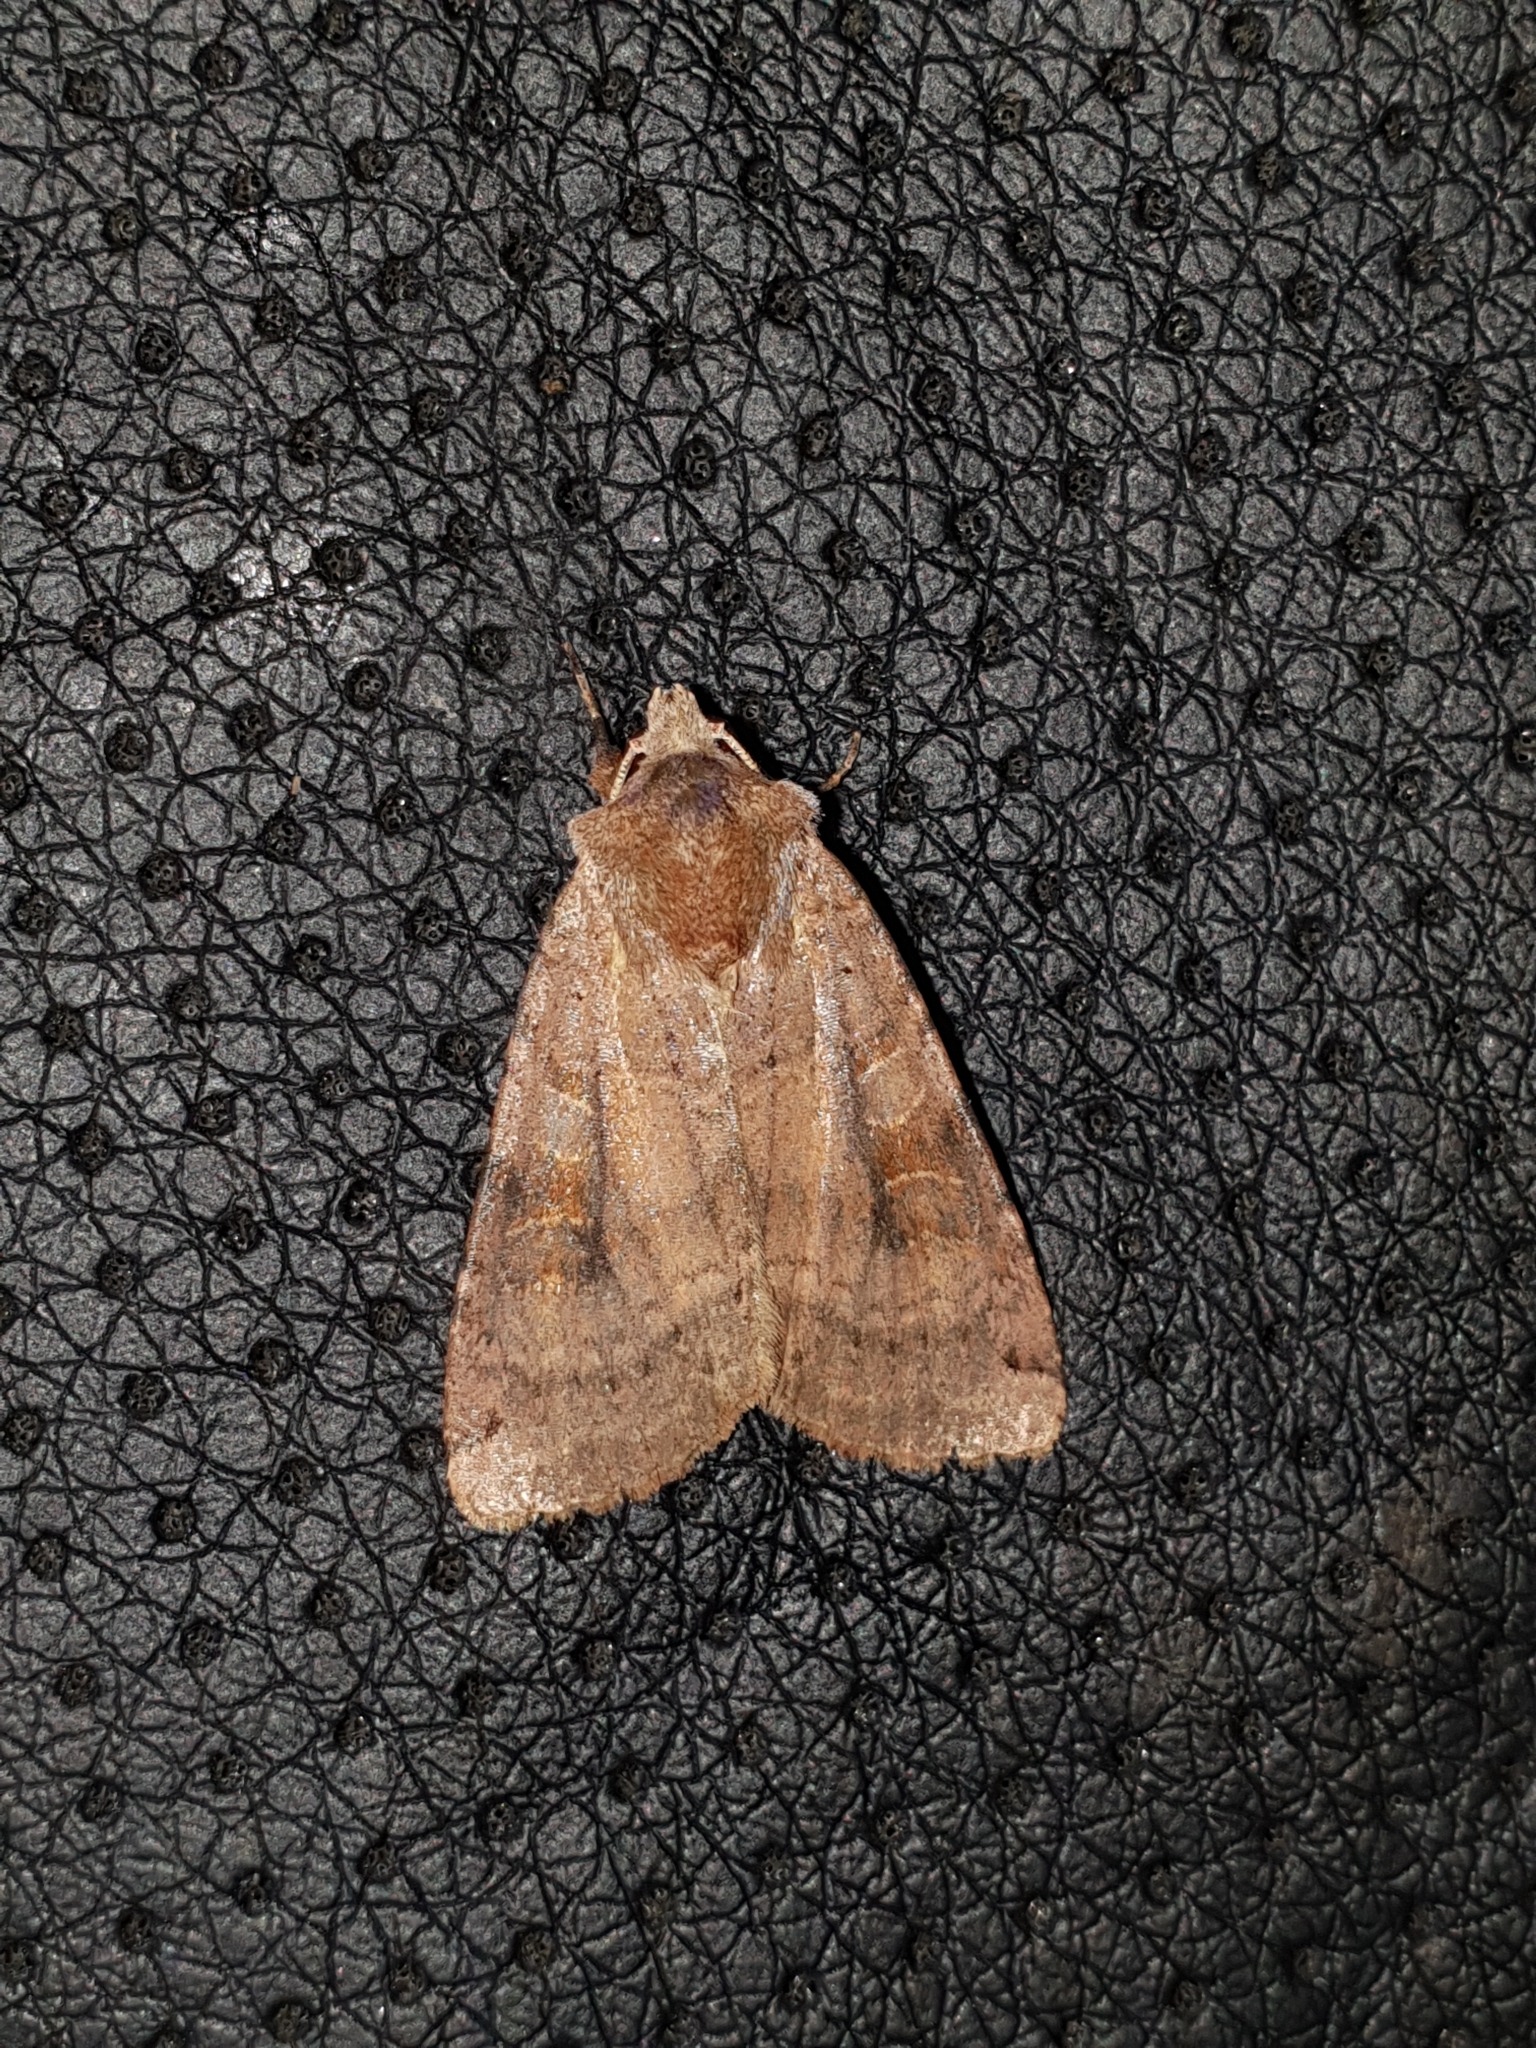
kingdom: Animalia
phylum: Arthropoda
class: Insecta
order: Lepidoptera
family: Noctuidae
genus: Xestia
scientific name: Xestia baja
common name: Dotted clay
